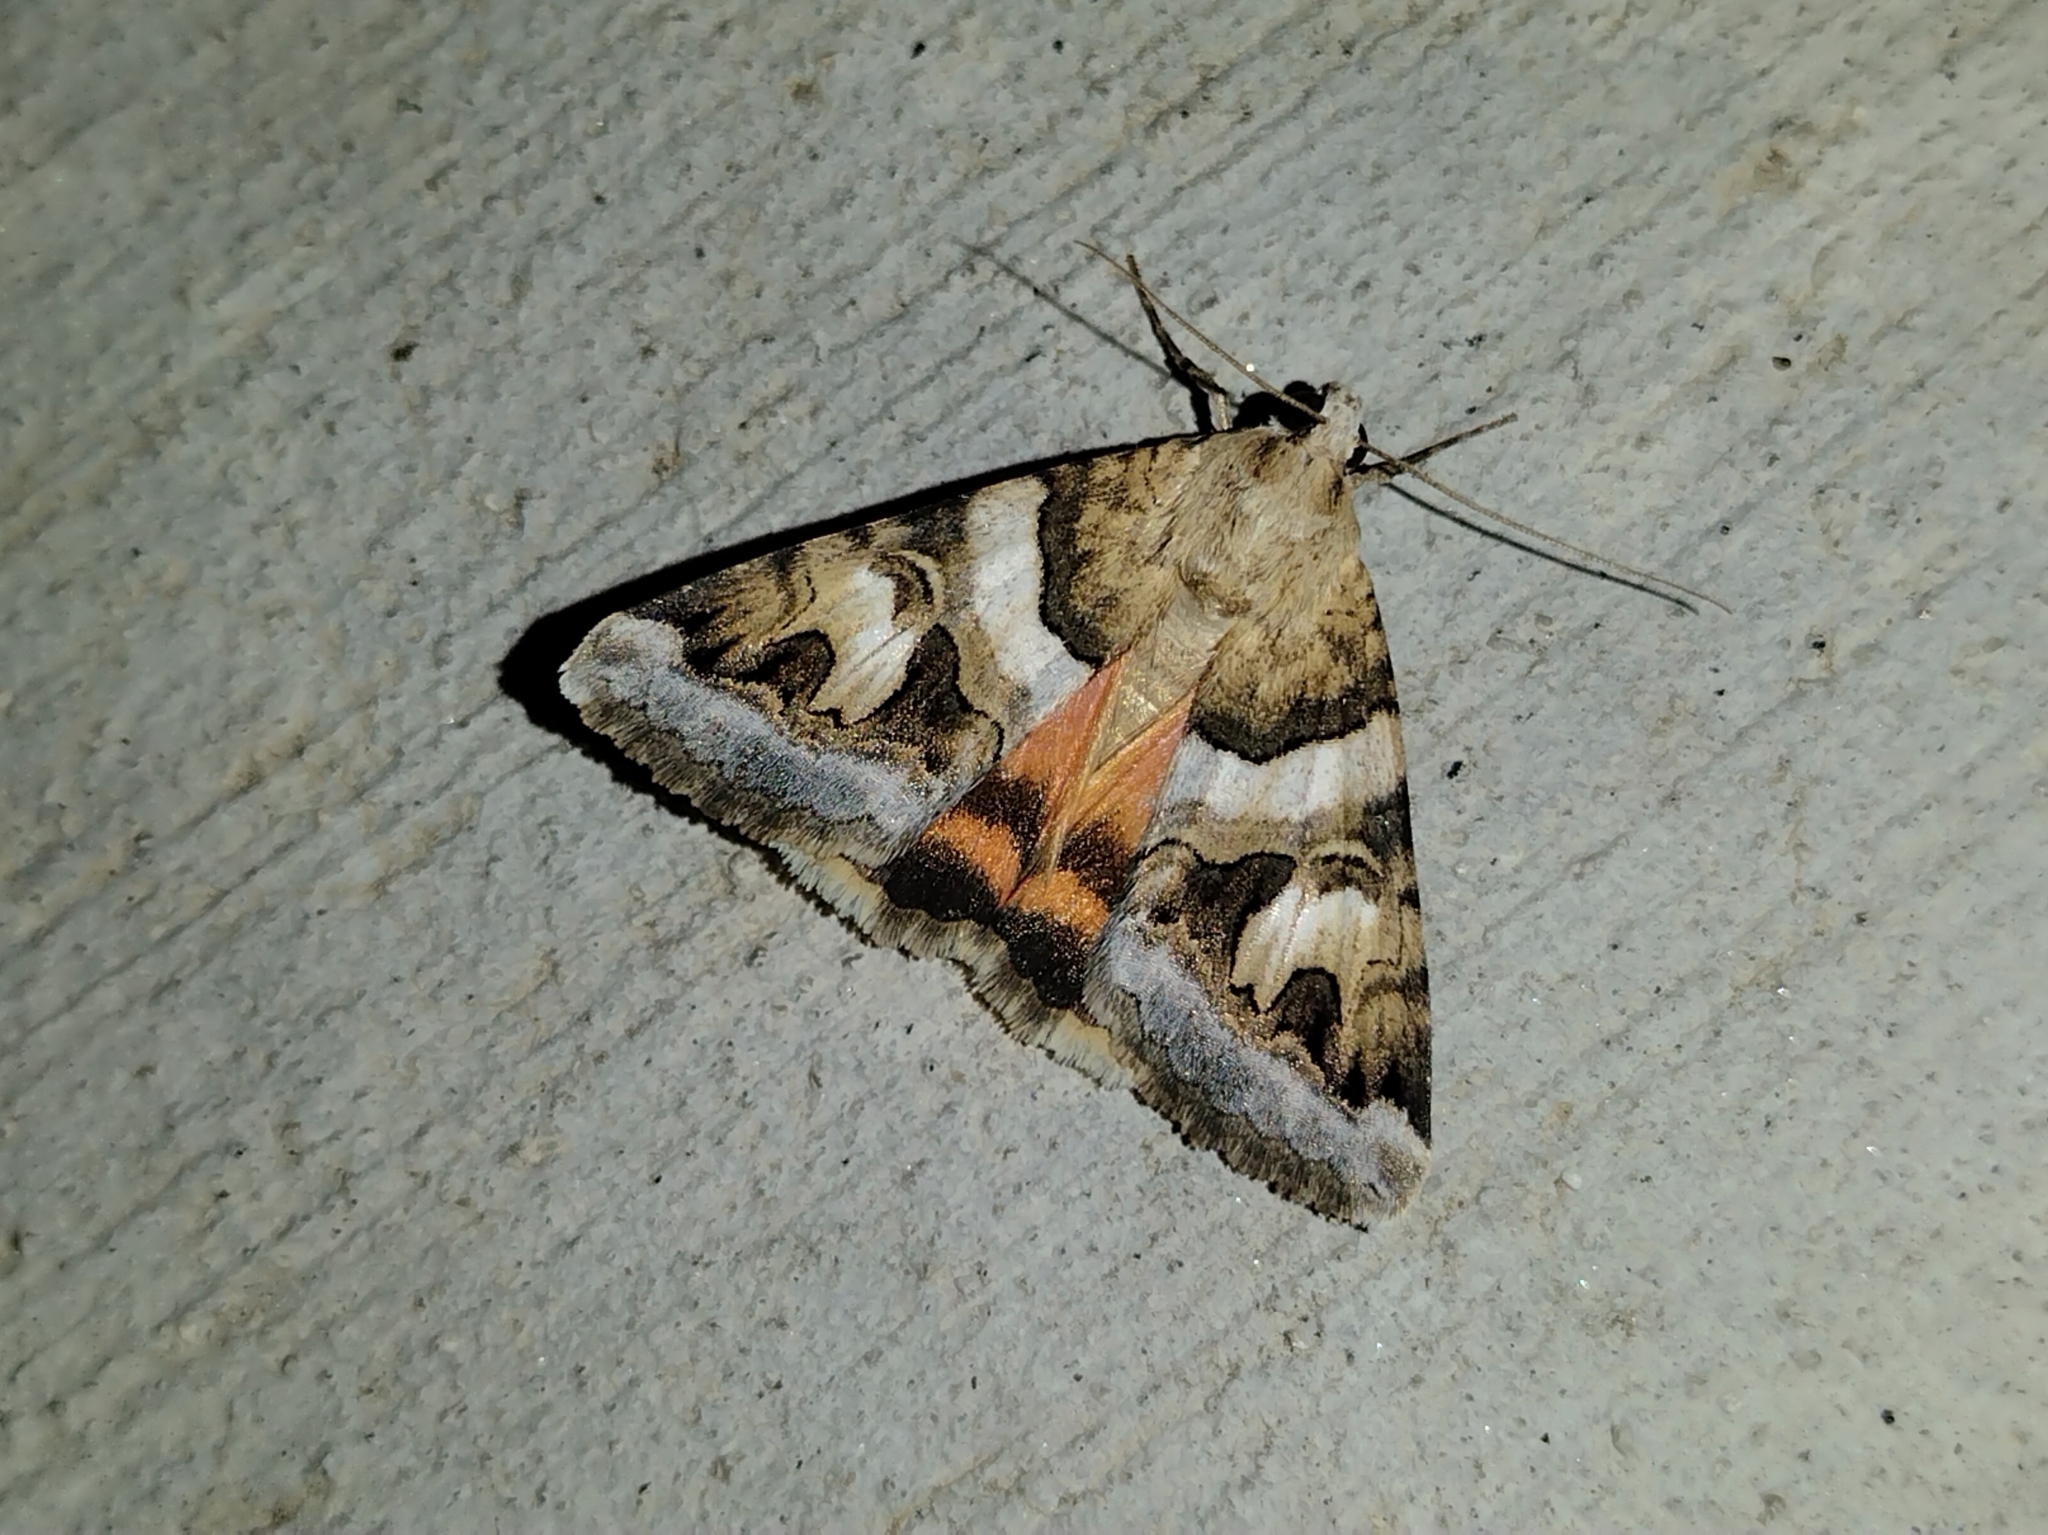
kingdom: Animalia
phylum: Arthropoda
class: Insecta
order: Lepidoptera
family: Erebidae
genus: Drasteria
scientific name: Drasteria howlandii
